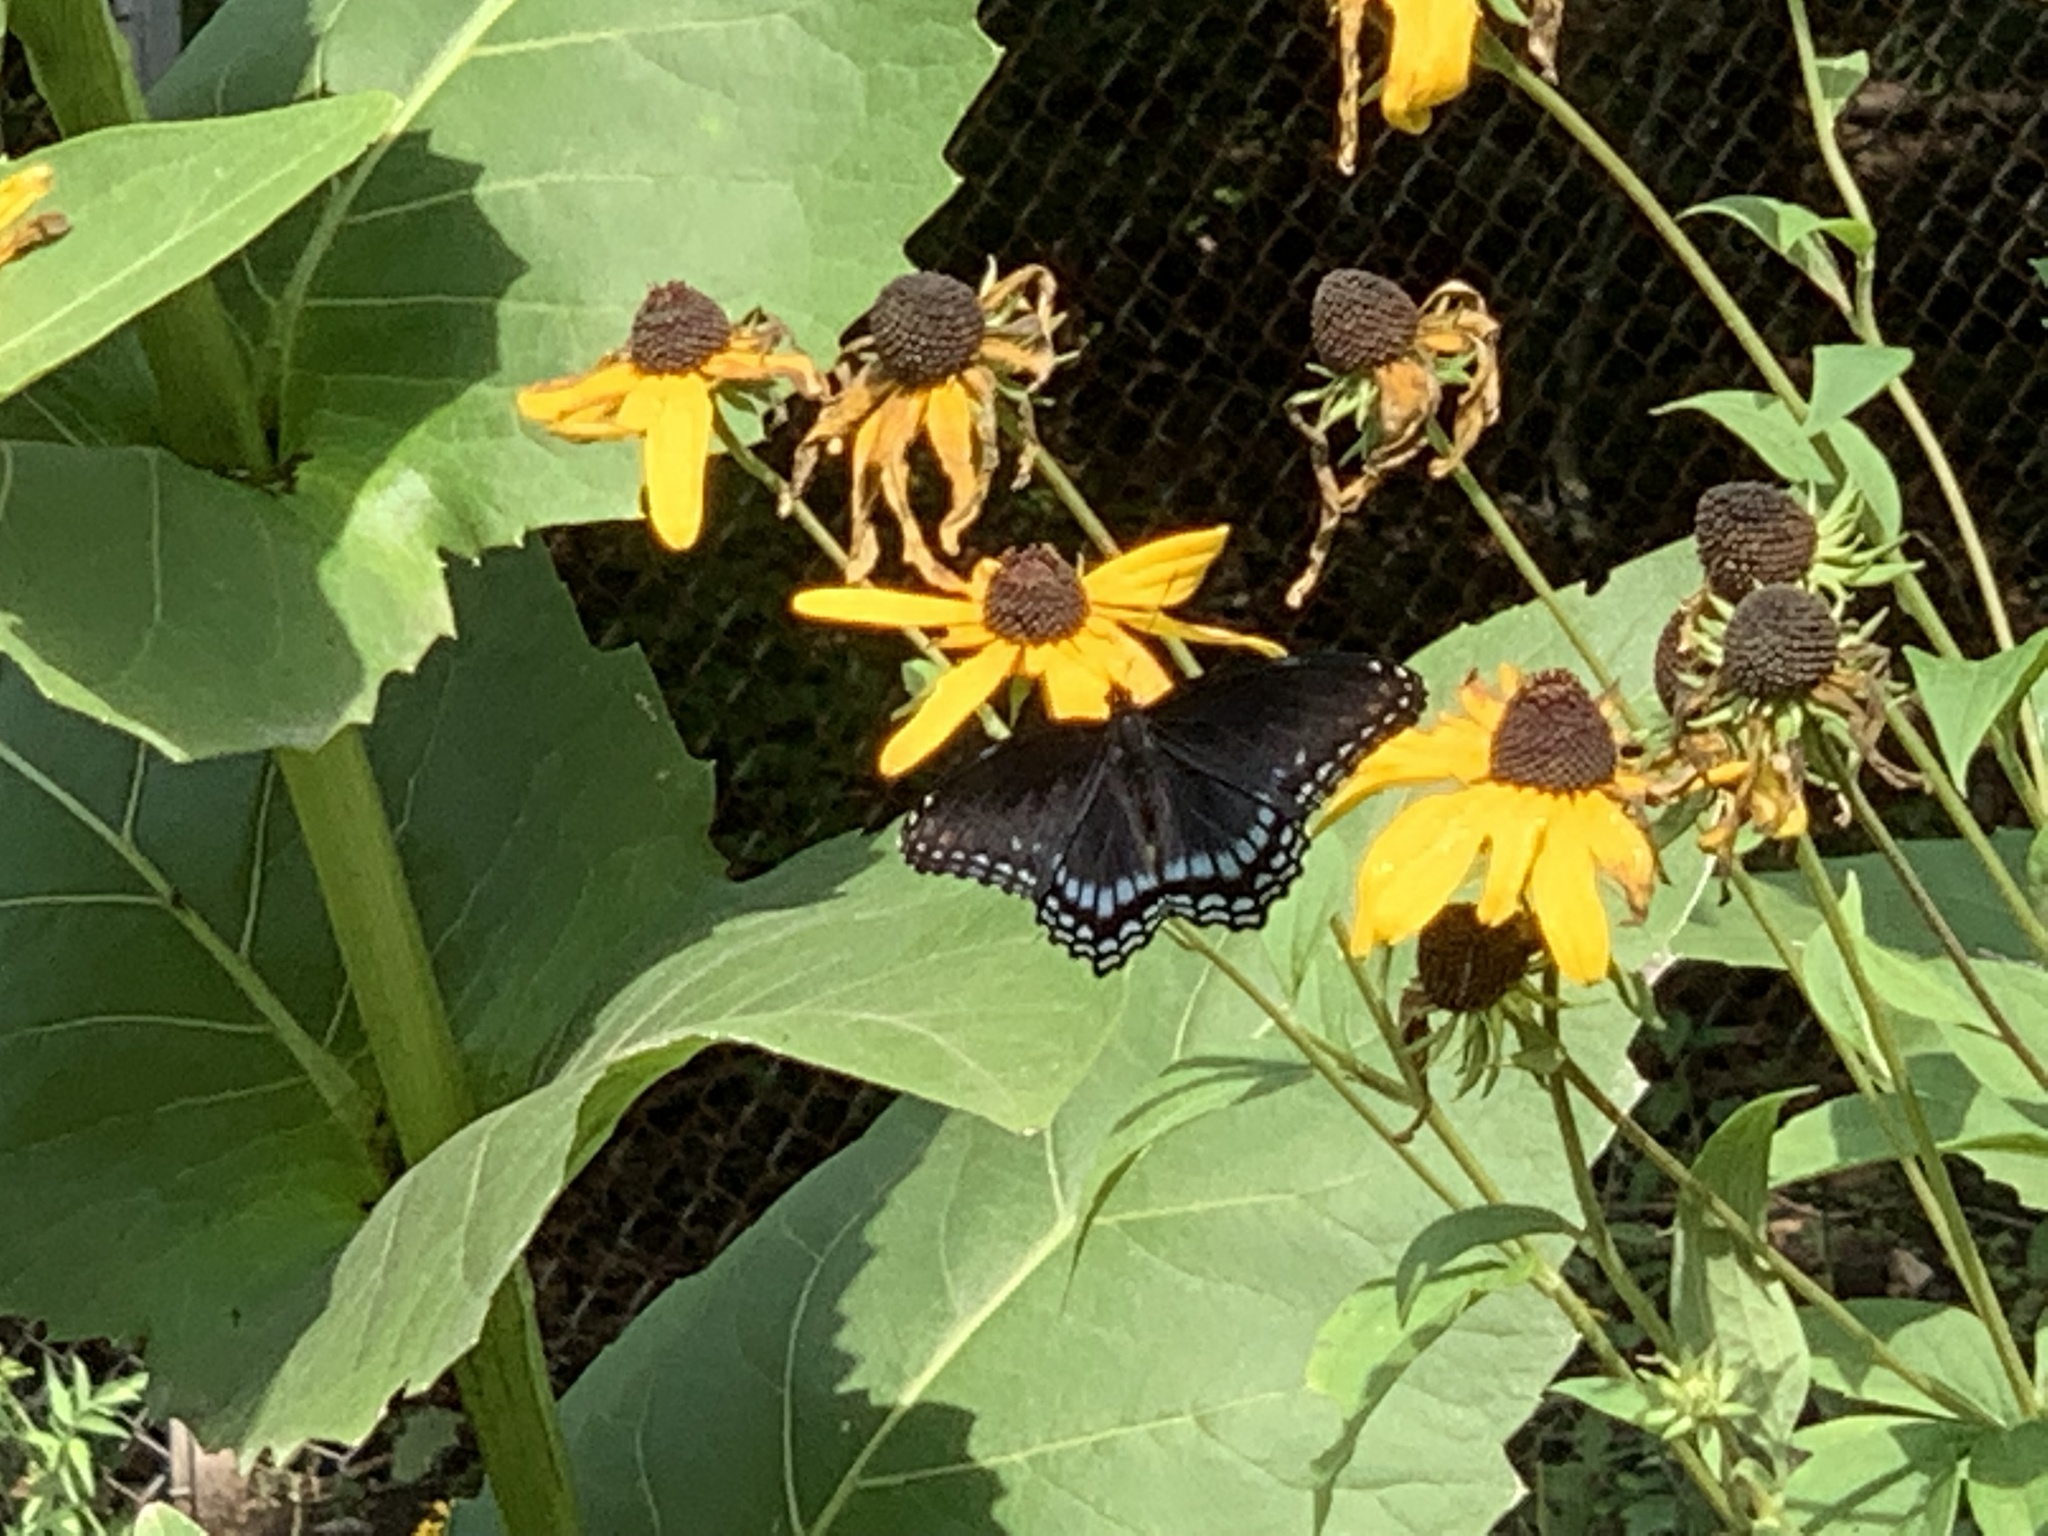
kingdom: Animalia
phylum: Arthropoda
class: Insecta
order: Lepidoptera
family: Nymphalidae
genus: Limenitis
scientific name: Limenitis arthemis
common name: Red-spotted admiral
